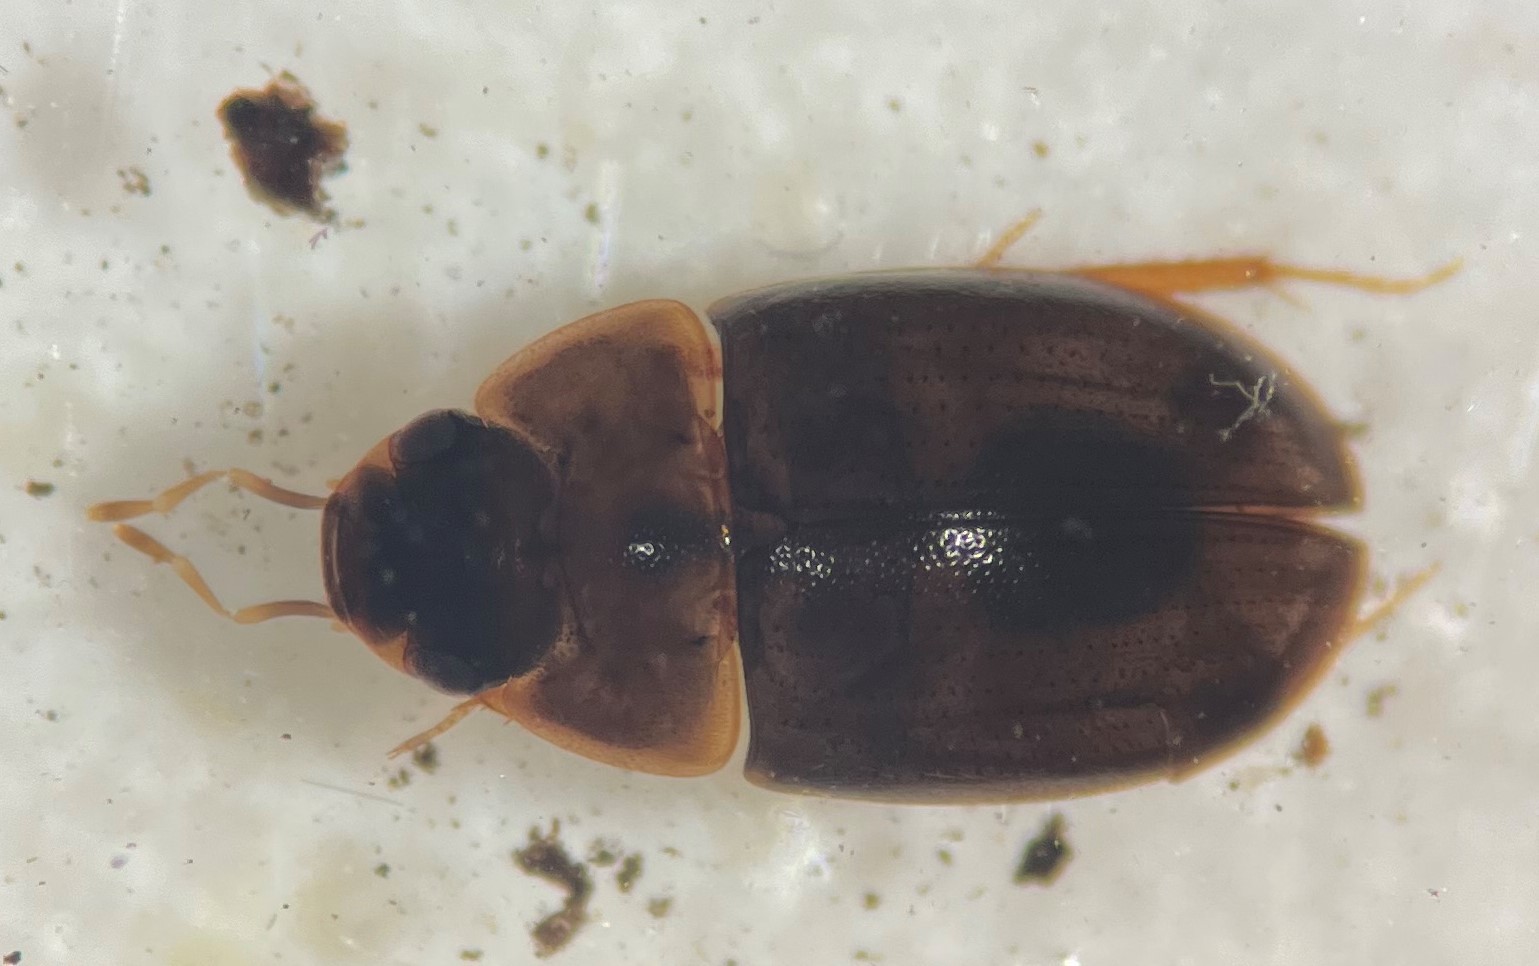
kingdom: Animalia
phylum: Arthropoda
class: Insecta
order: Coleoptera
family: Hydrophilidae
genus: Enochrus
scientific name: Enochrus sublongus
